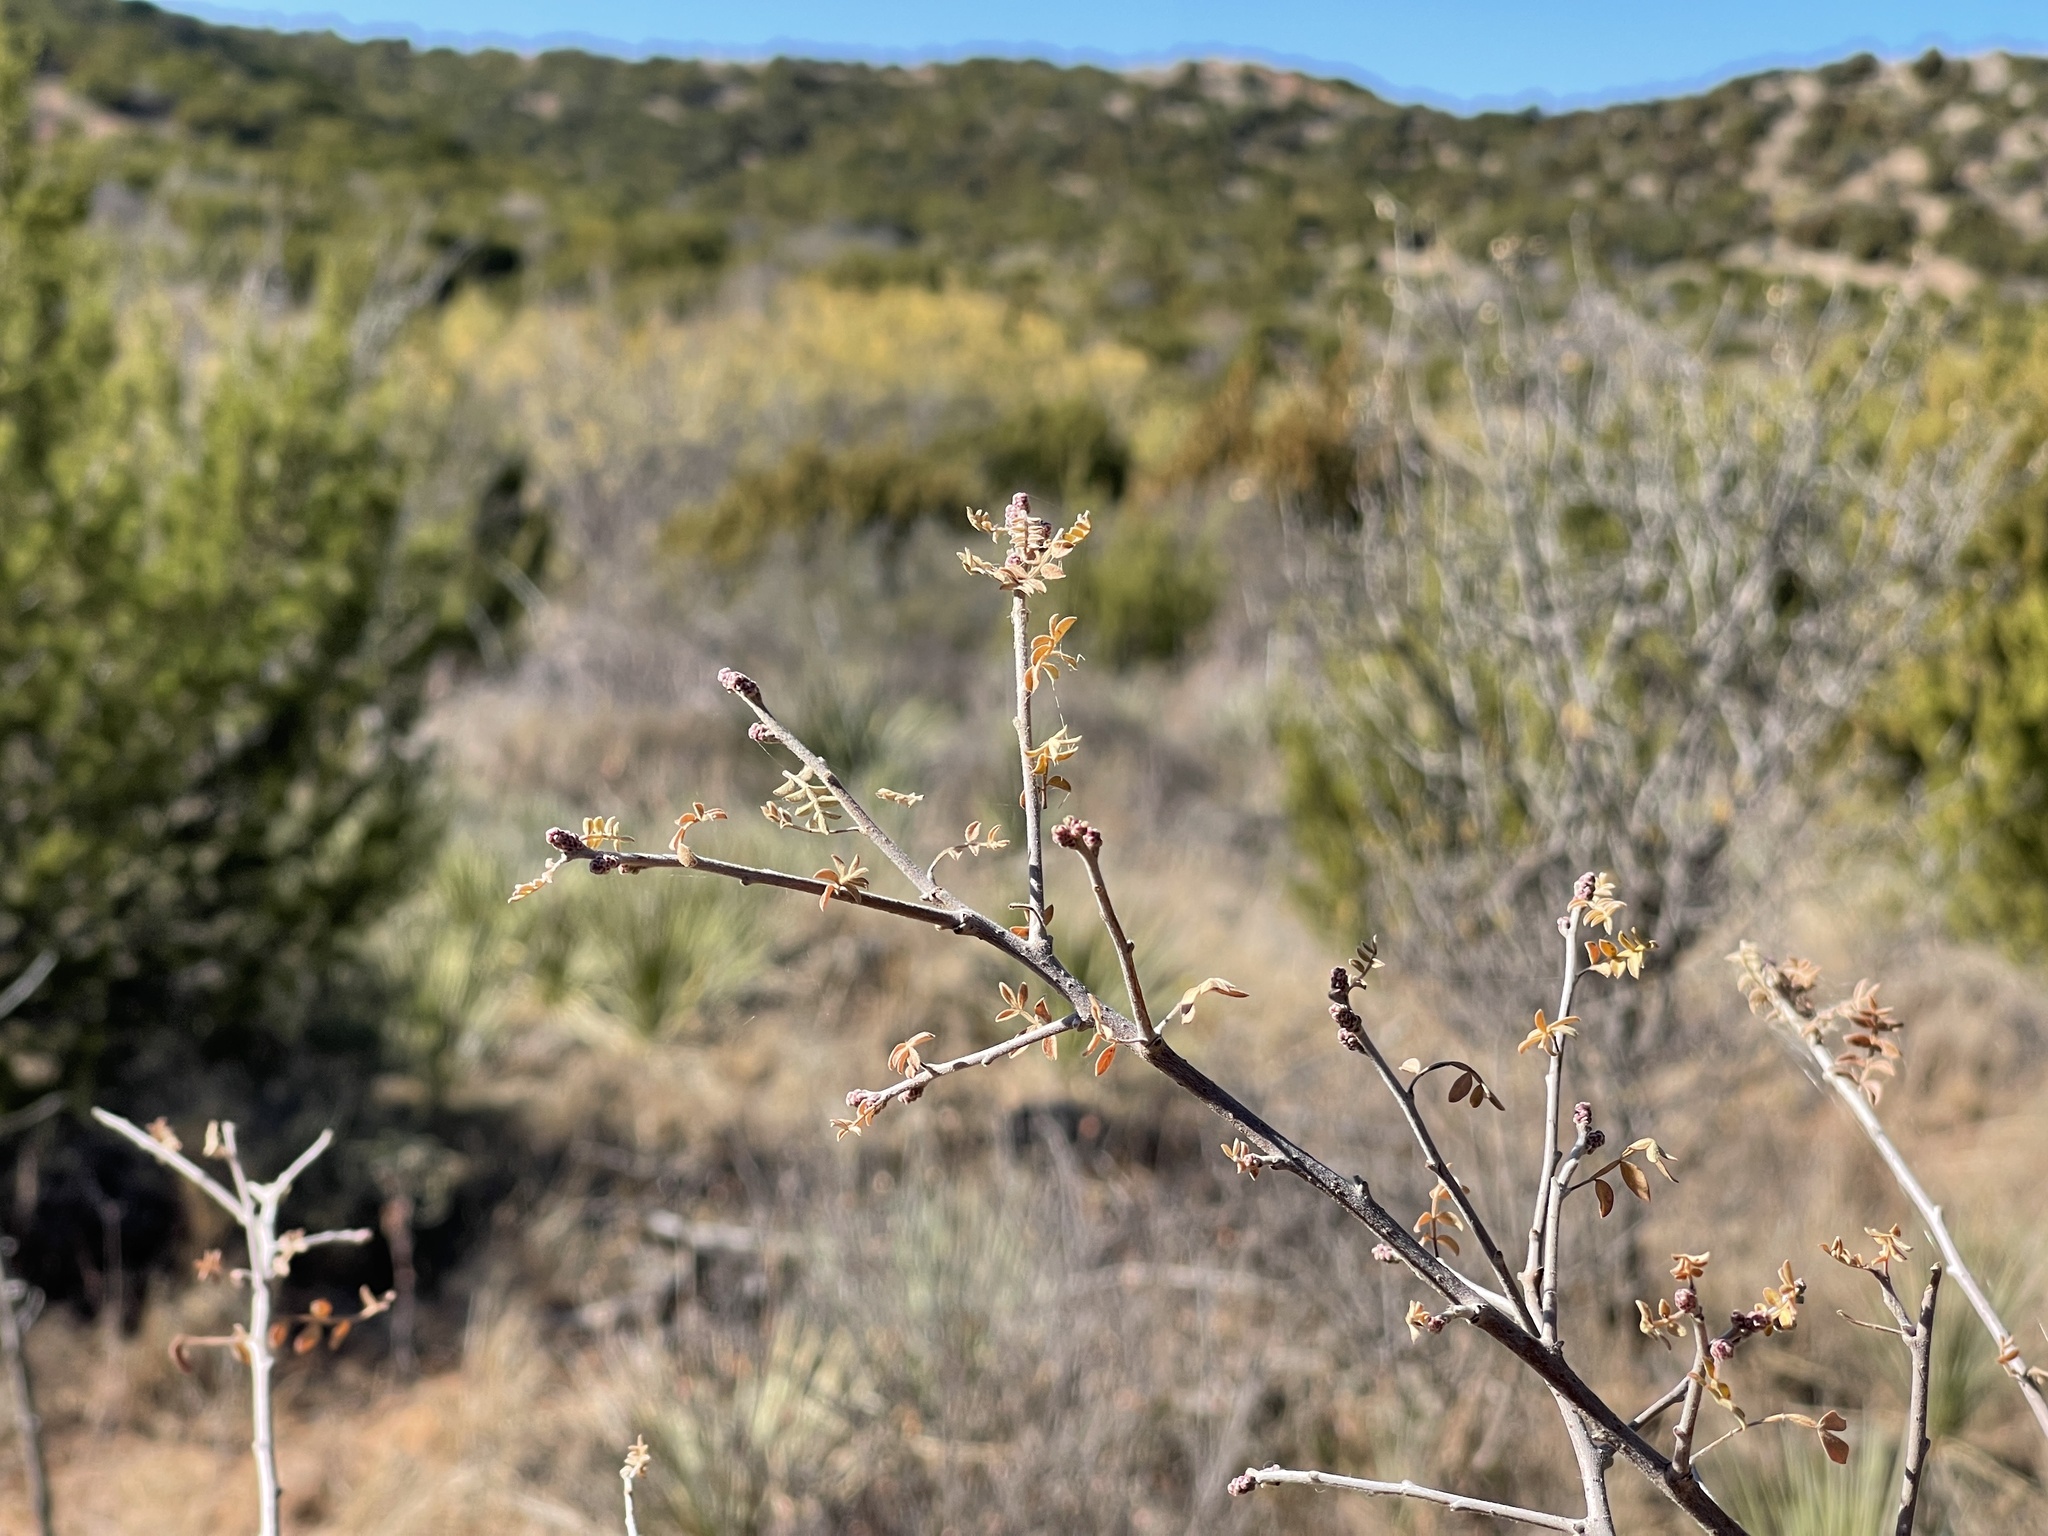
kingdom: Plantae
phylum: Tracheophyta
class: Magnoliopsida
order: Sapindales
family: Anacardiaceae
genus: Rhus
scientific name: Rhus microphylla
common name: Desert sumac
